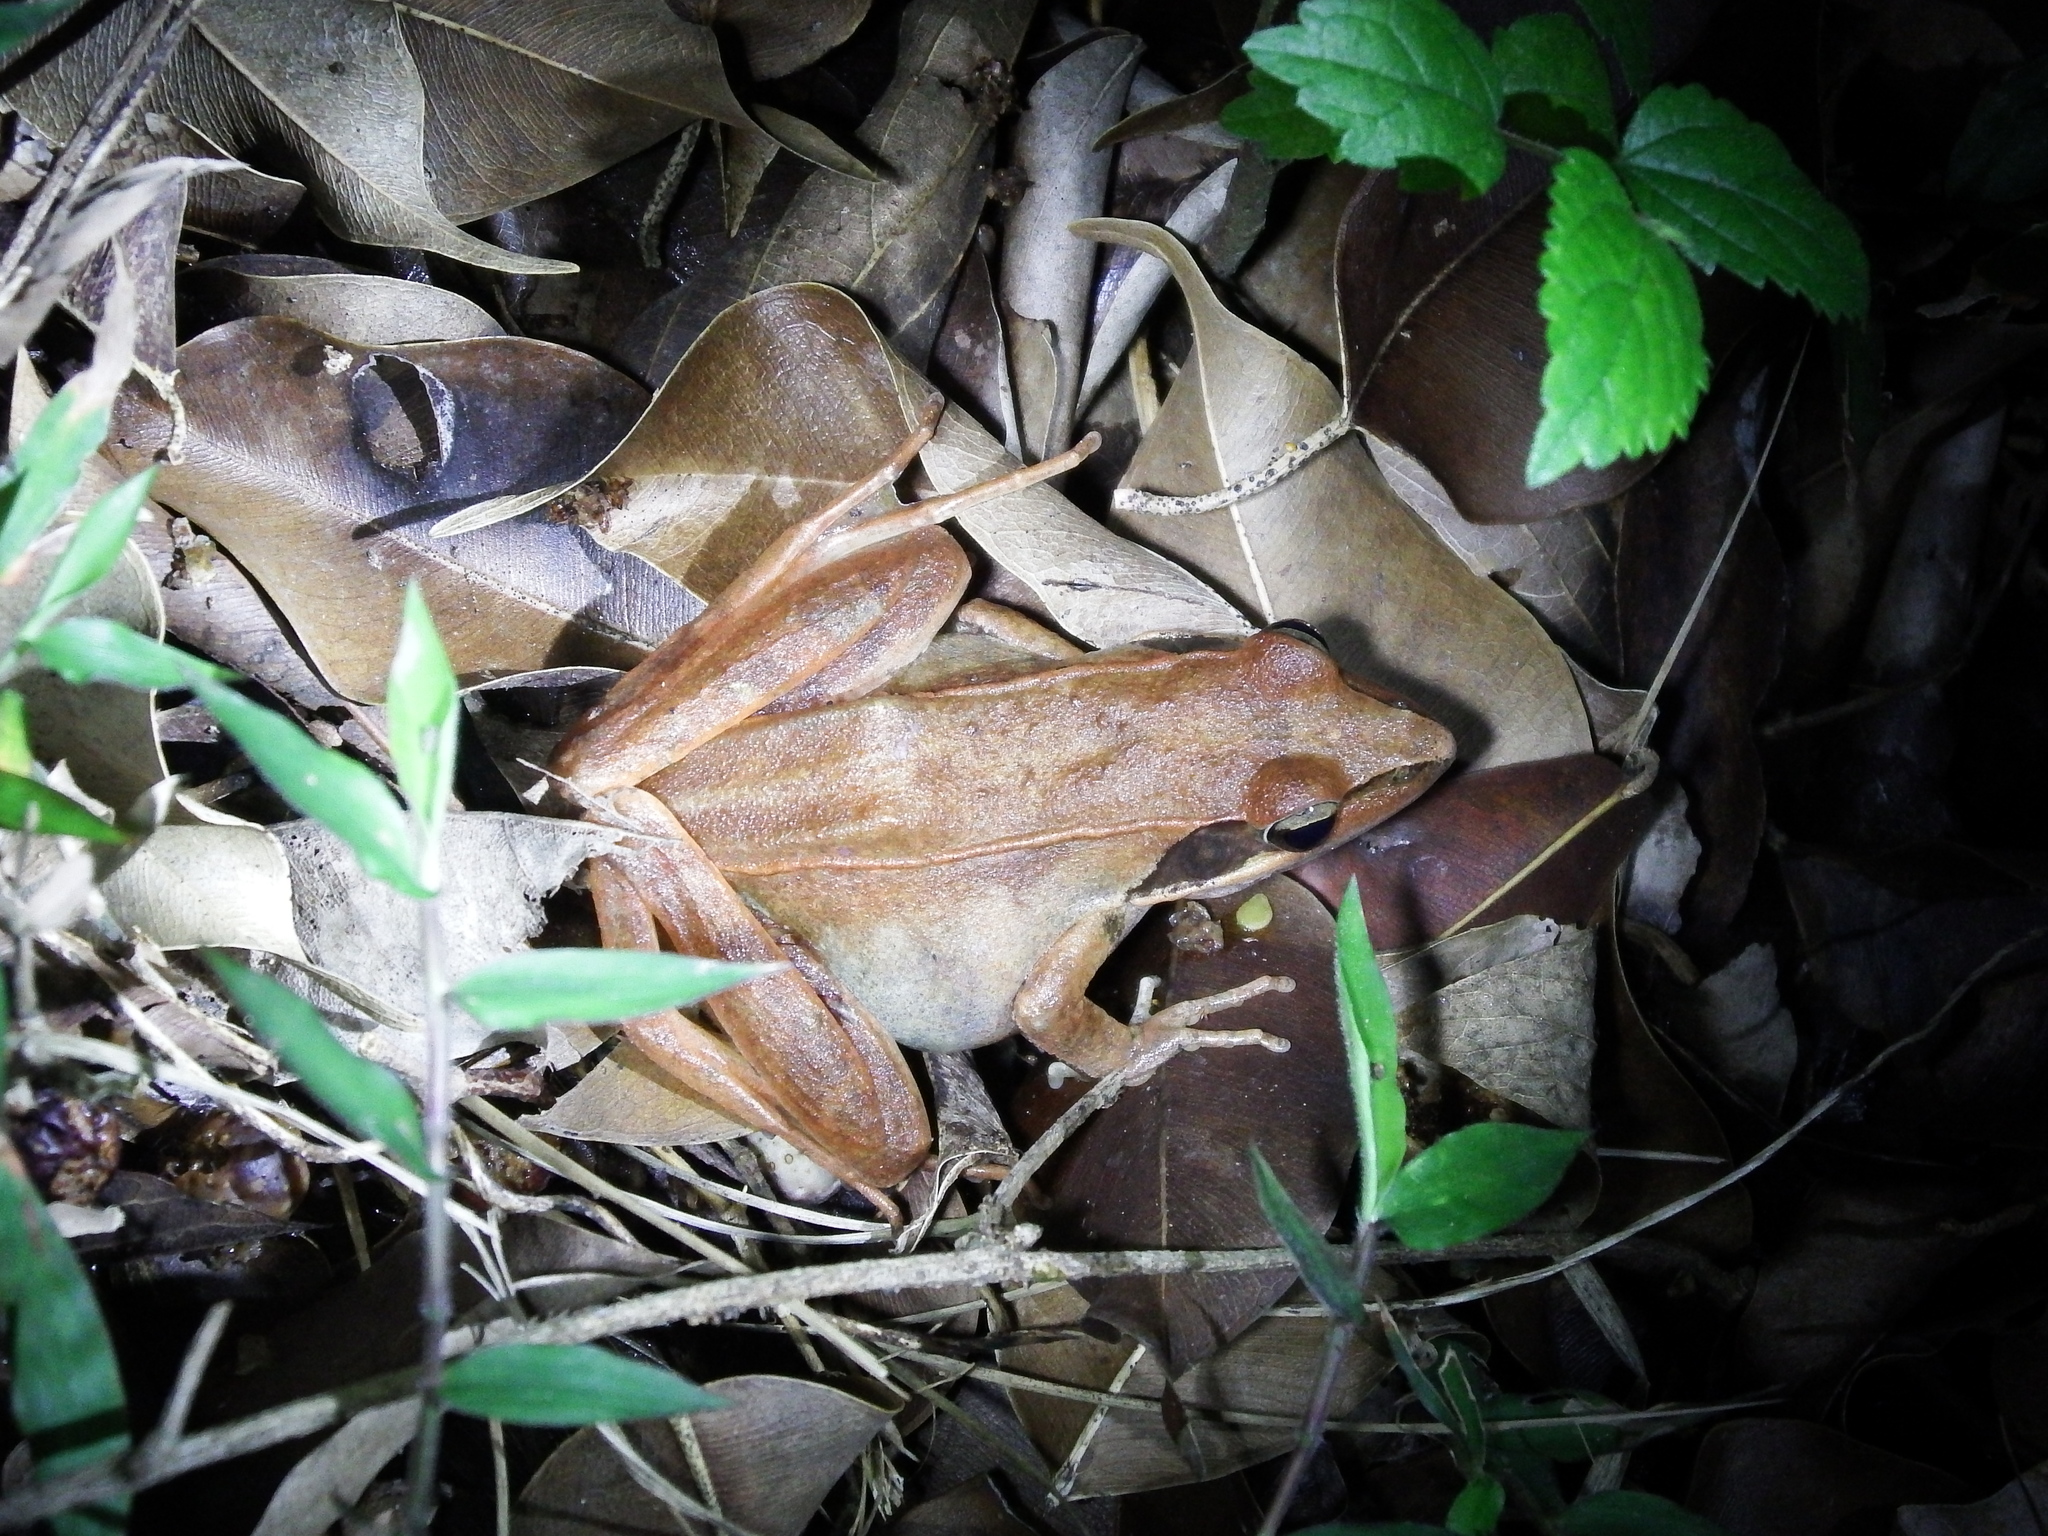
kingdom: Animalia
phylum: Chordata
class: Amphibia
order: Anura
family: Ranidae
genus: Rana
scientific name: Rana longicrus
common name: Long-legged brown frog
